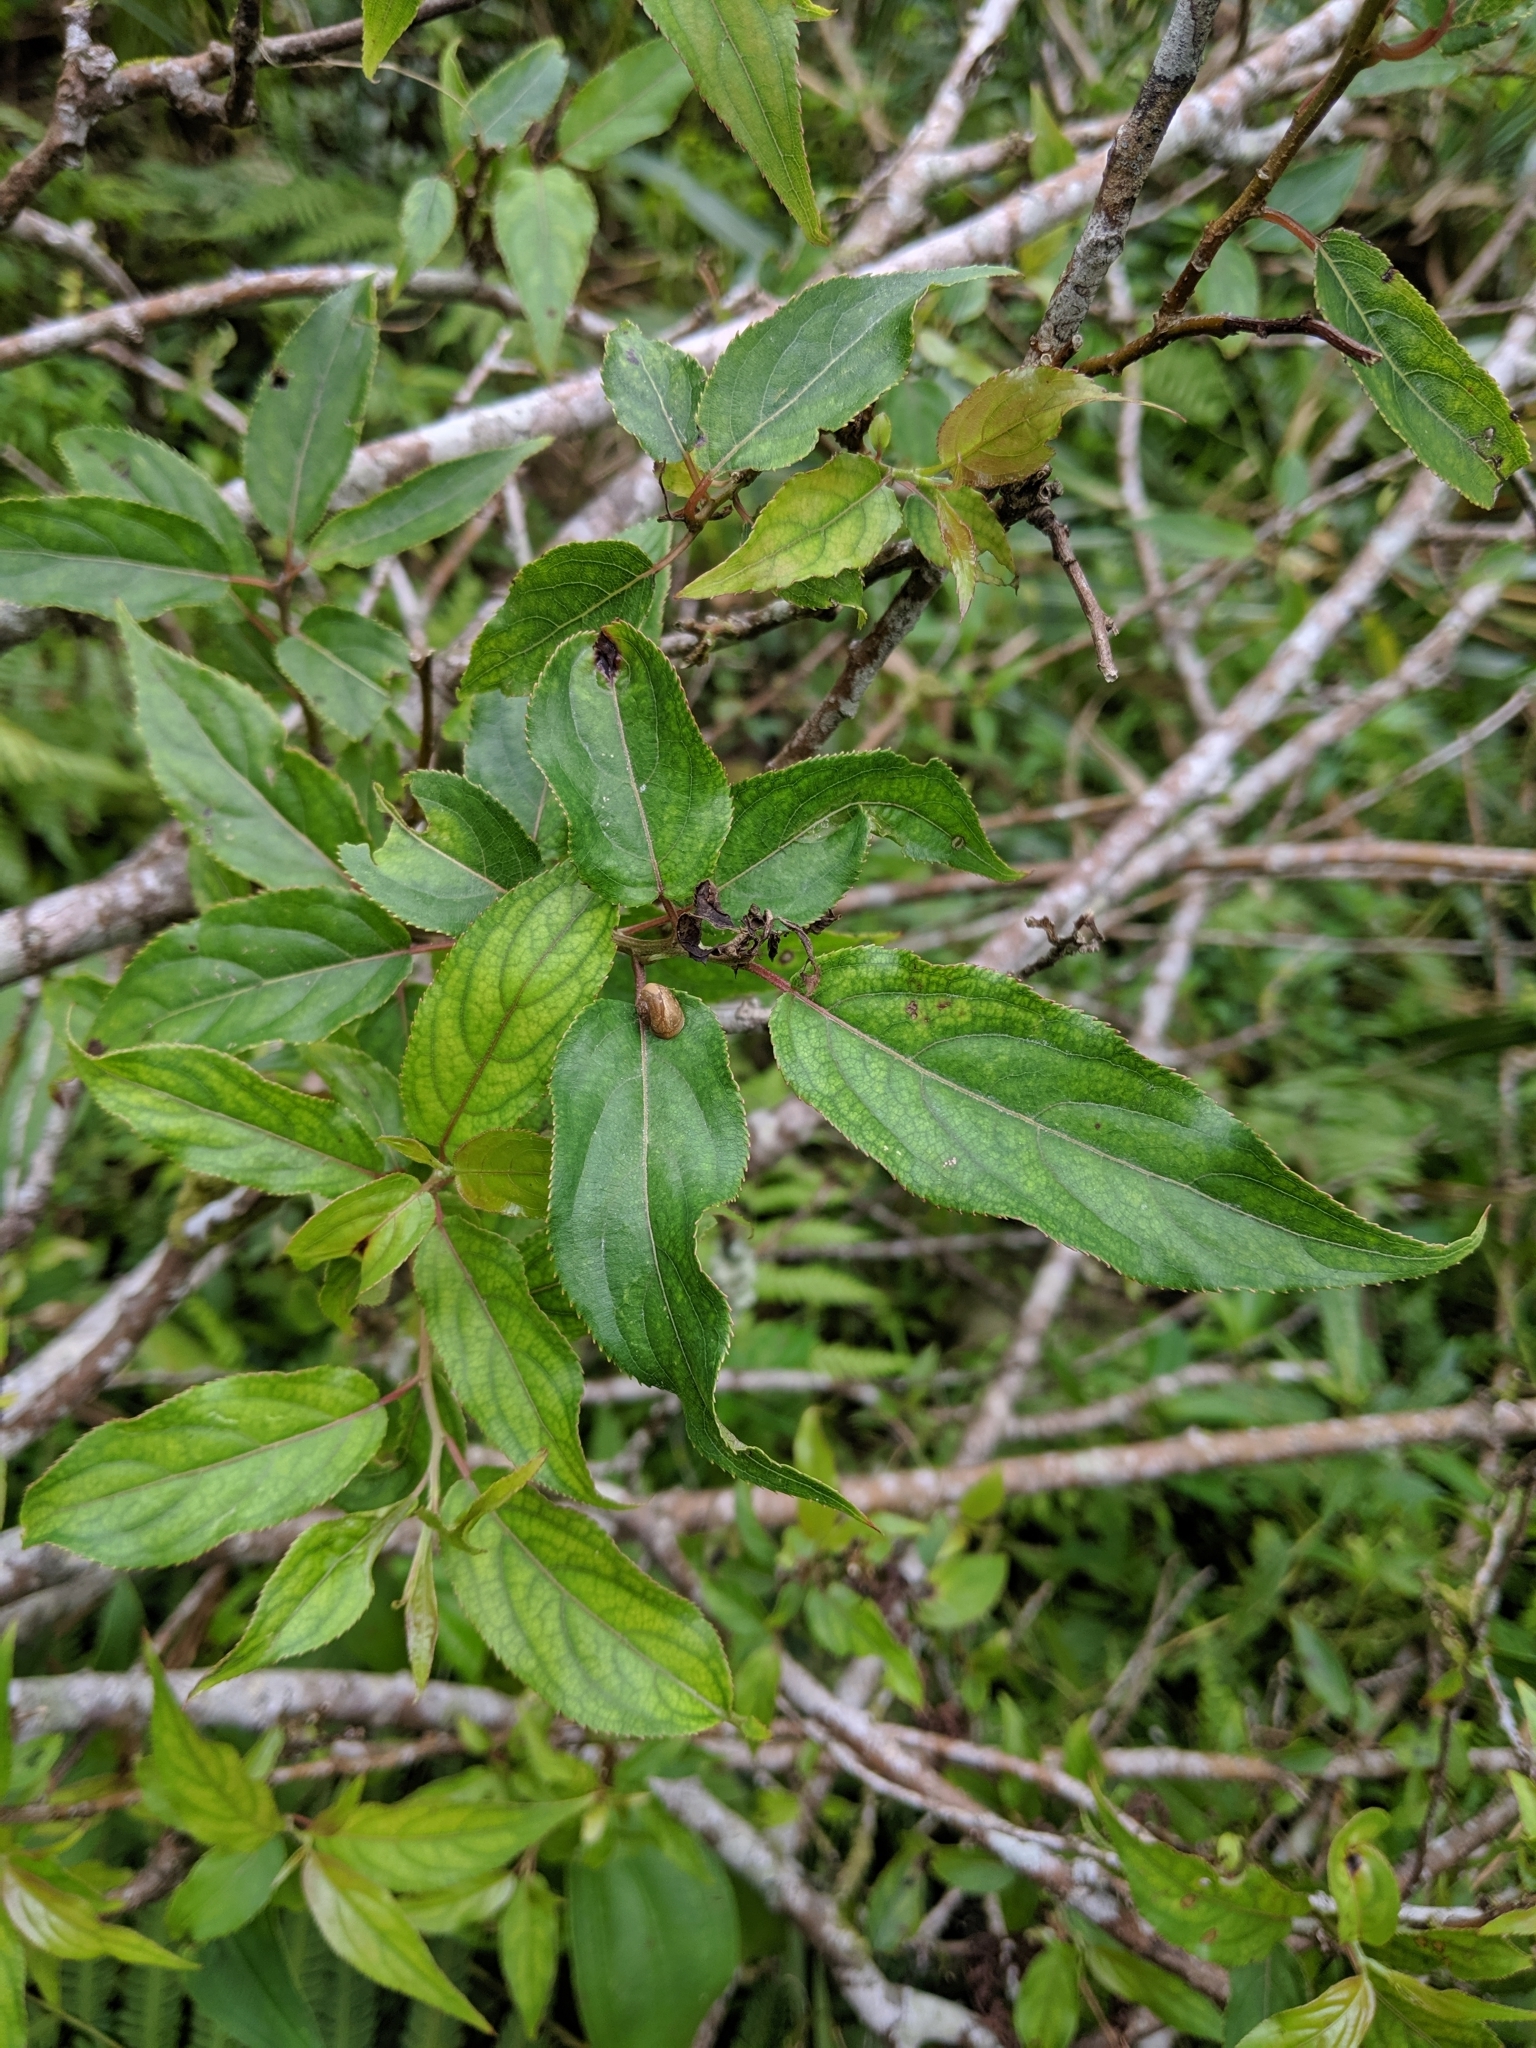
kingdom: Plantae
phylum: Tracheophyta
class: Magnoliopsida
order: Crossosomatales
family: Stachyuraceae
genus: Stachyurus
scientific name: Stachyurus himalaicus
